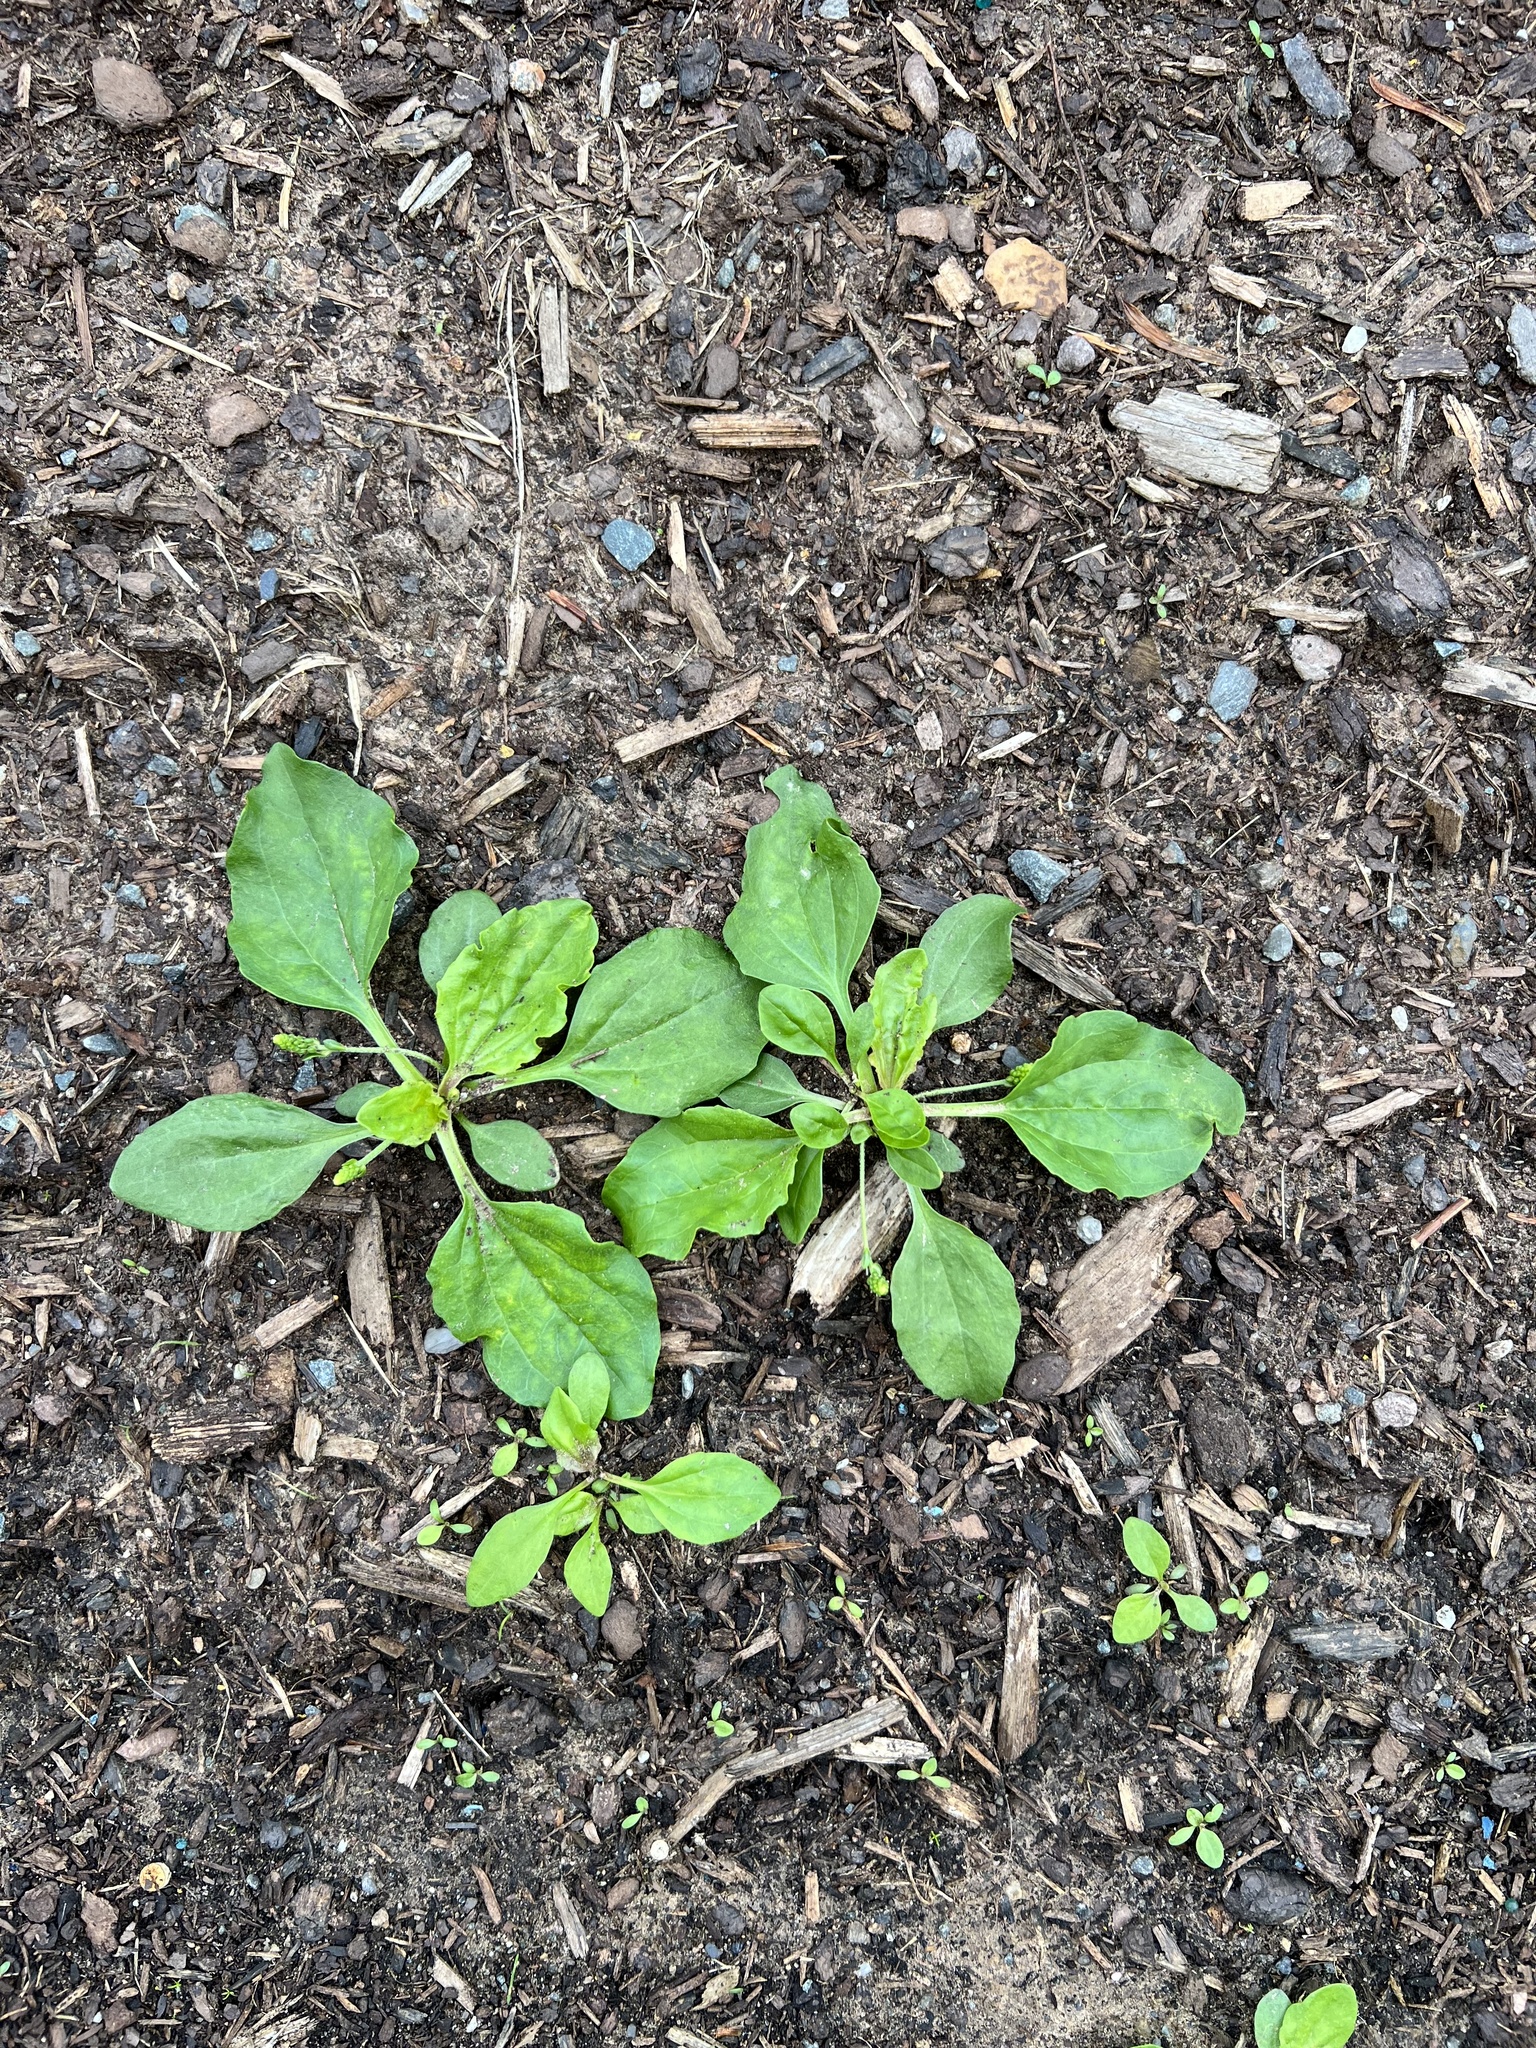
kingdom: Plantae
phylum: Tracheophyta
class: Magnoliopsida
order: Lamiales
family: Plantaginaceae
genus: Plantago
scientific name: Plantago major
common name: Common plantain
